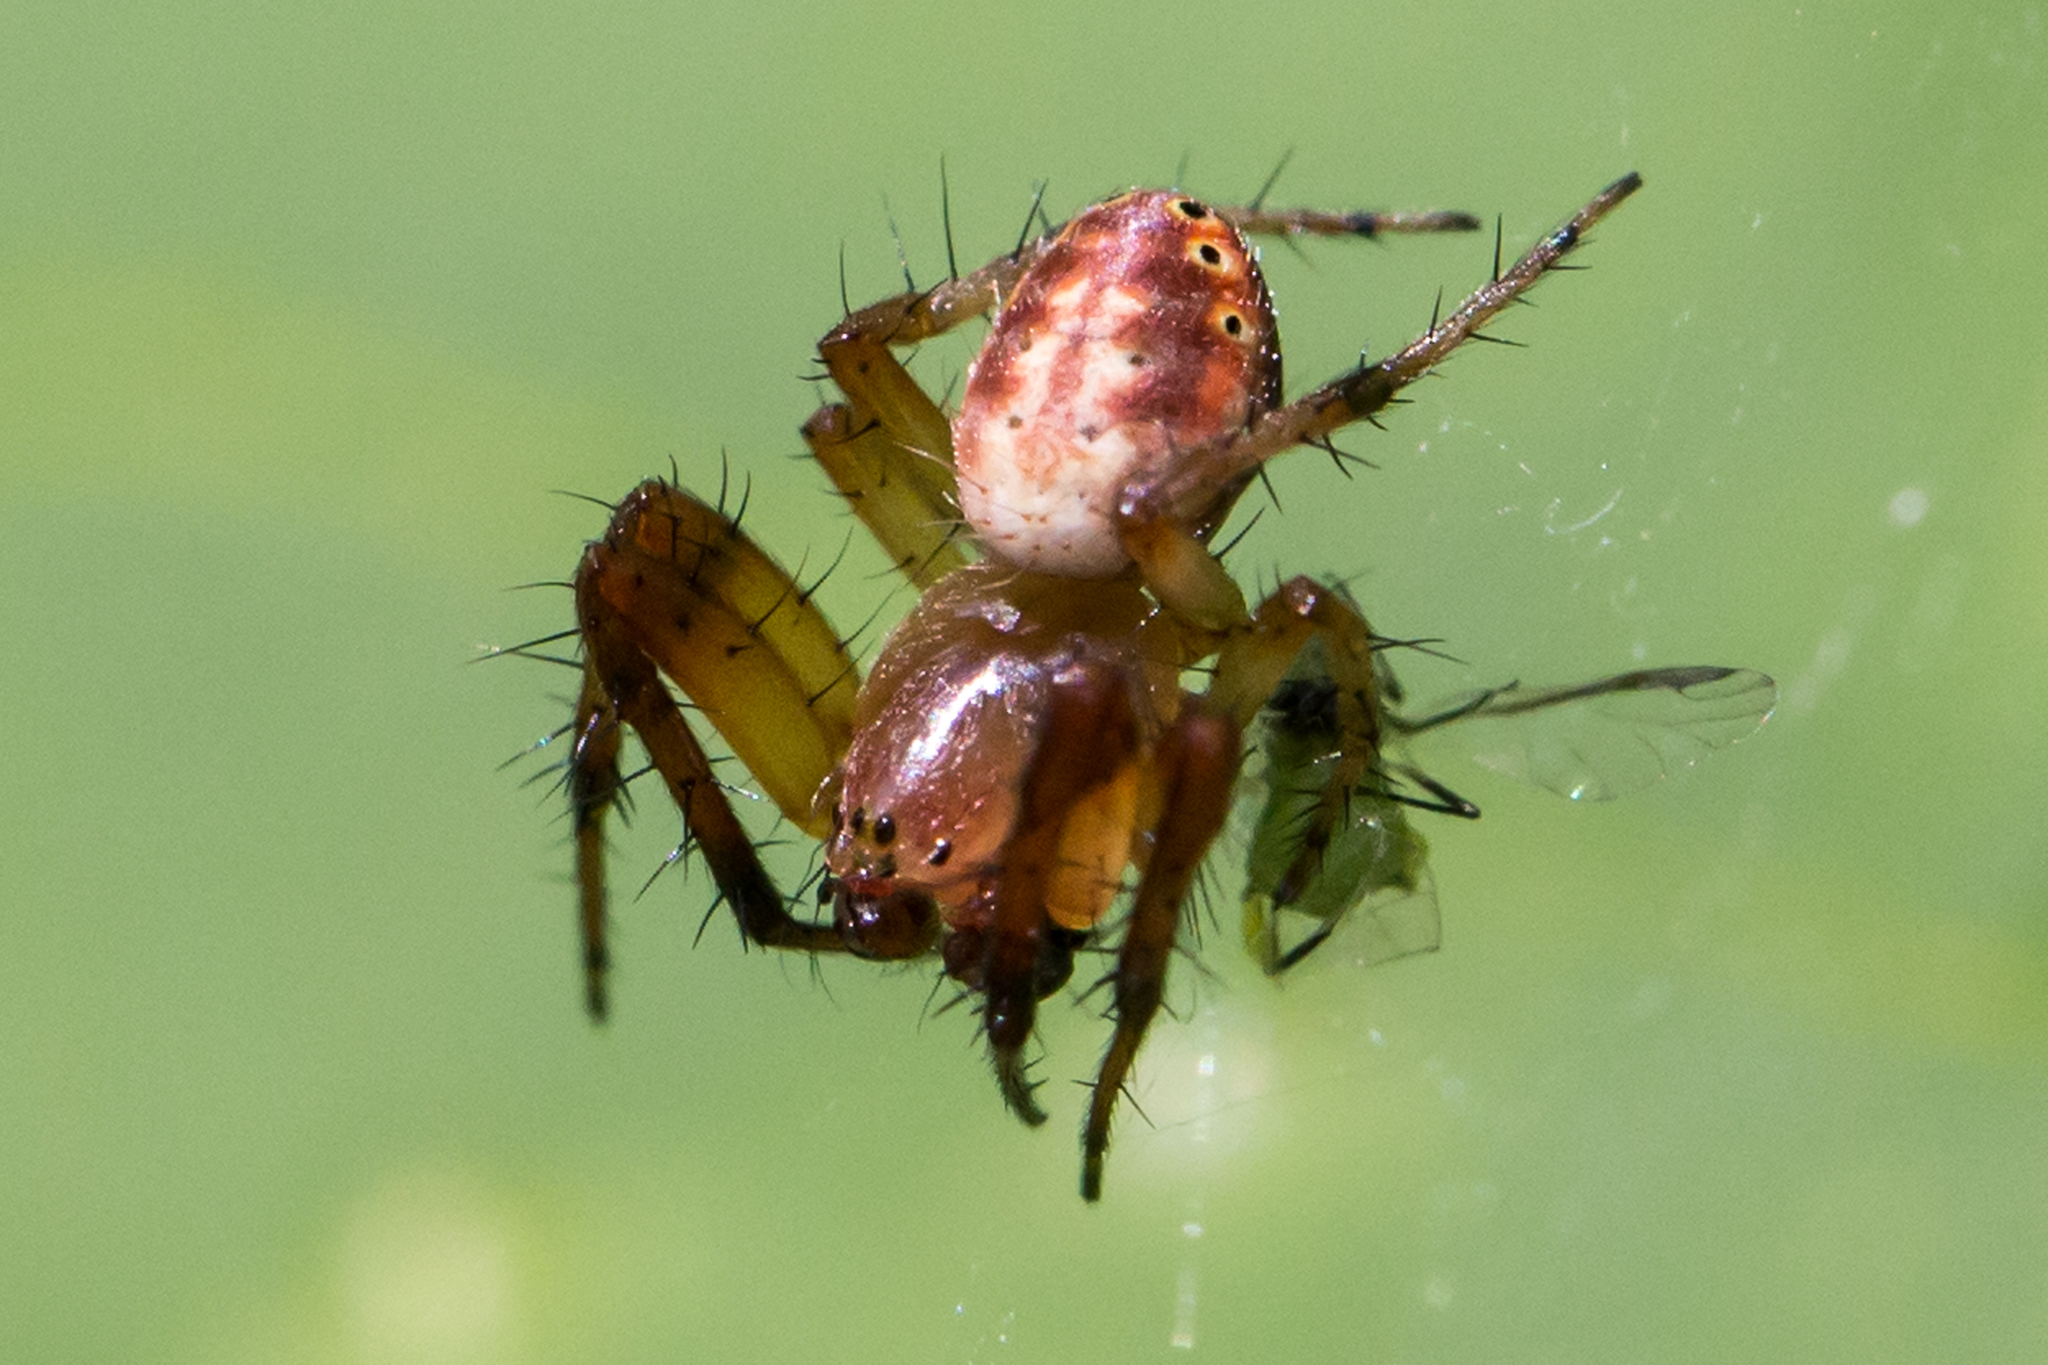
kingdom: Animalia
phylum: Arthropoda
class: Arachnida
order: Araneae
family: Araneidae
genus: Araniella
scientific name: Araniella displicata
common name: Sixspotted orb weaver
